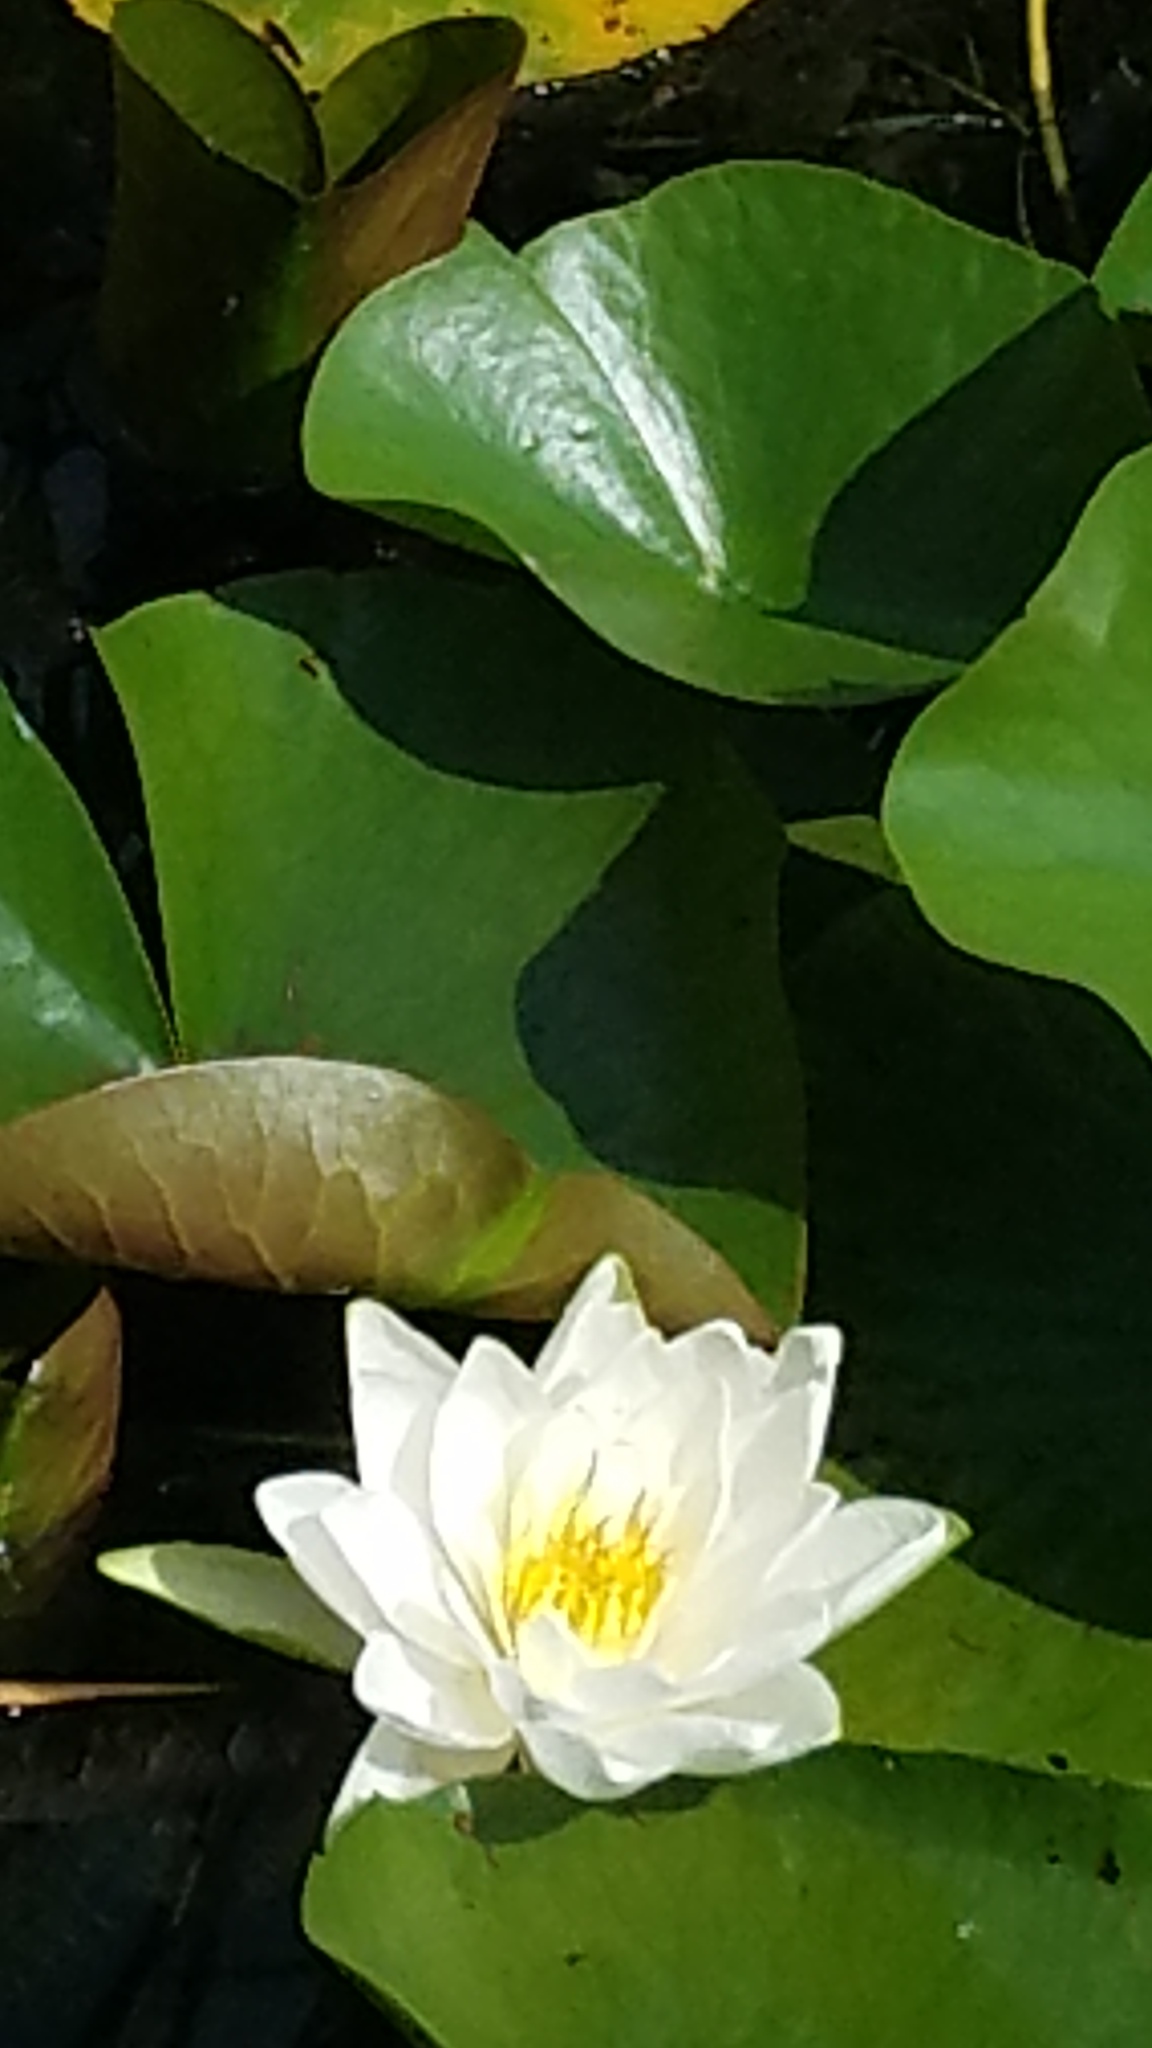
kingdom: Plantae
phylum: Tracheophyta
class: Magnoliopsida
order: Nymphaeales
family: Nymphaeaceae
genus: Nymphaea
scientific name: Nymphaea odorata
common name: Fragrant water-lily
